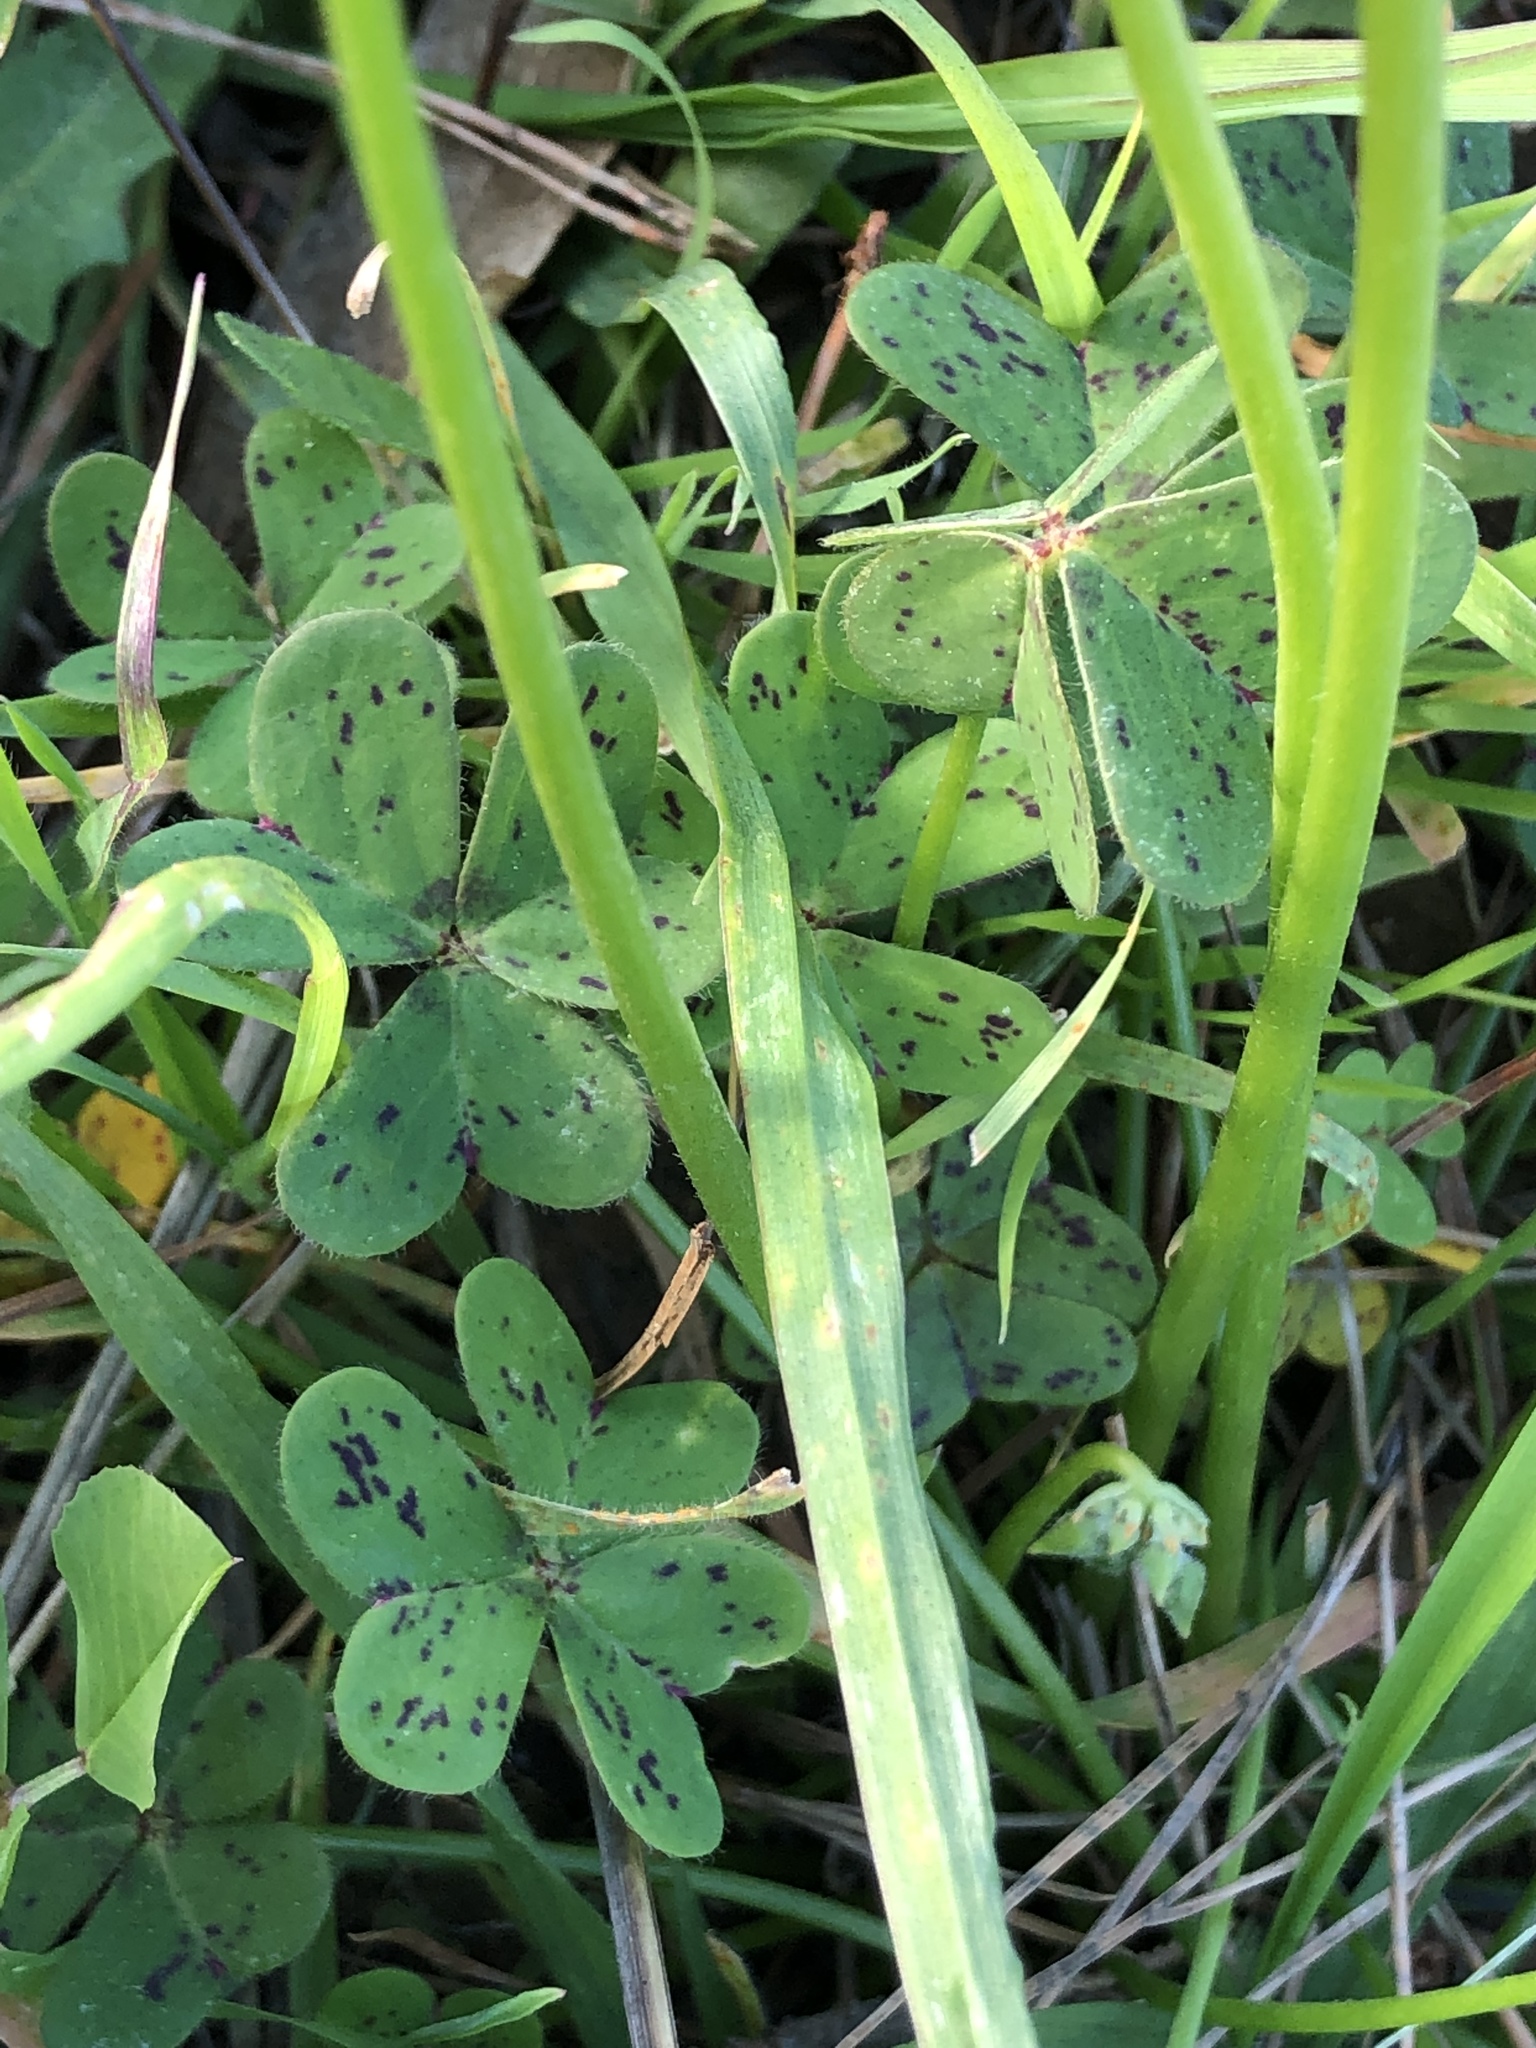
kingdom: Plantae
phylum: Tracheophyta
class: Magnoliopsida
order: Oxalidales
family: Oxalidaceae
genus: Oxalis
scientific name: Oxalis pes-caprae
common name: Bermuda-buttercup
